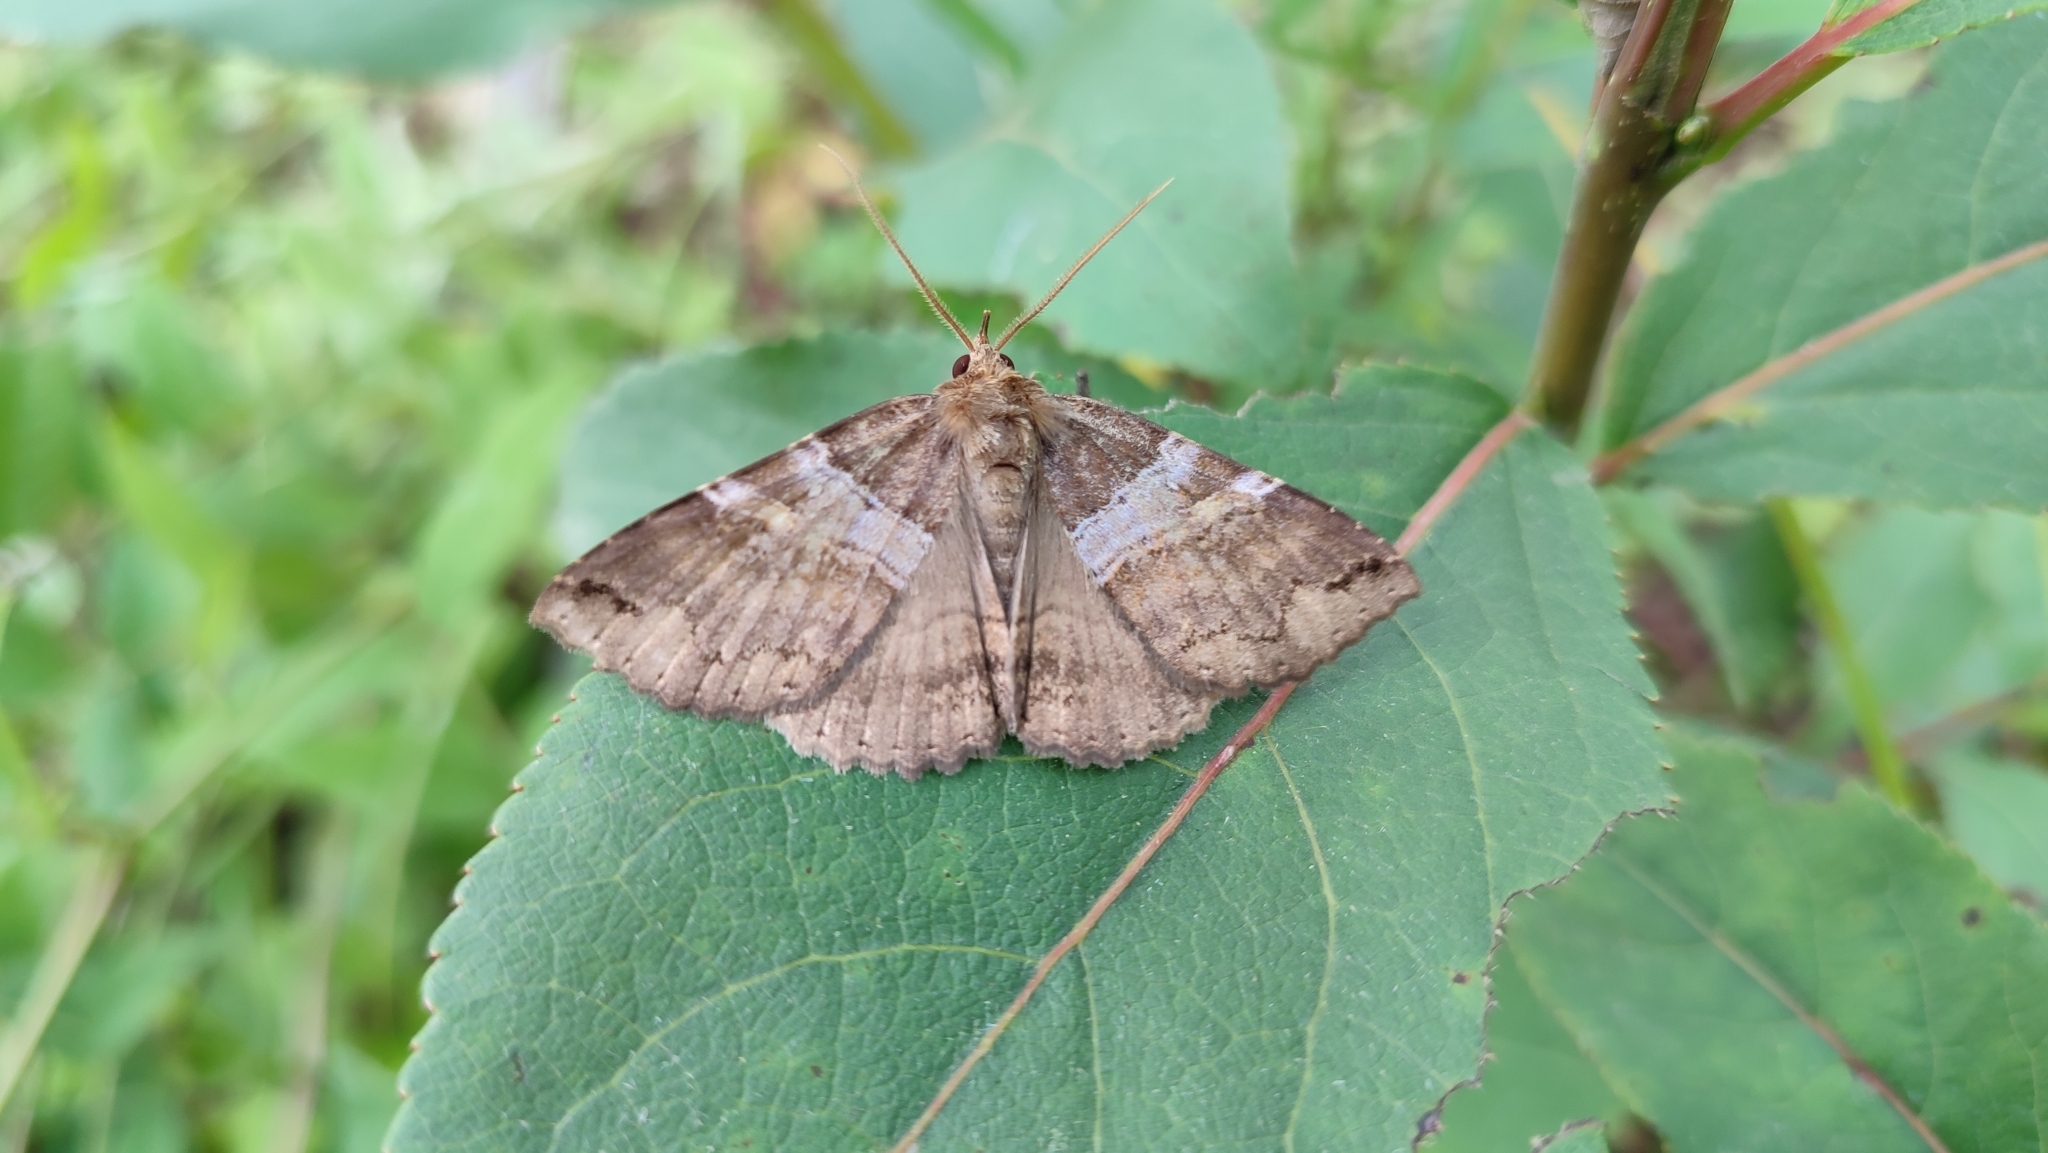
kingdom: Animalia
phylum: Arthropoda
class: Insecta
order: Lepidoptera
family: Erebidae
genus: Sypnoides
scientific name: Sypnoides picta
